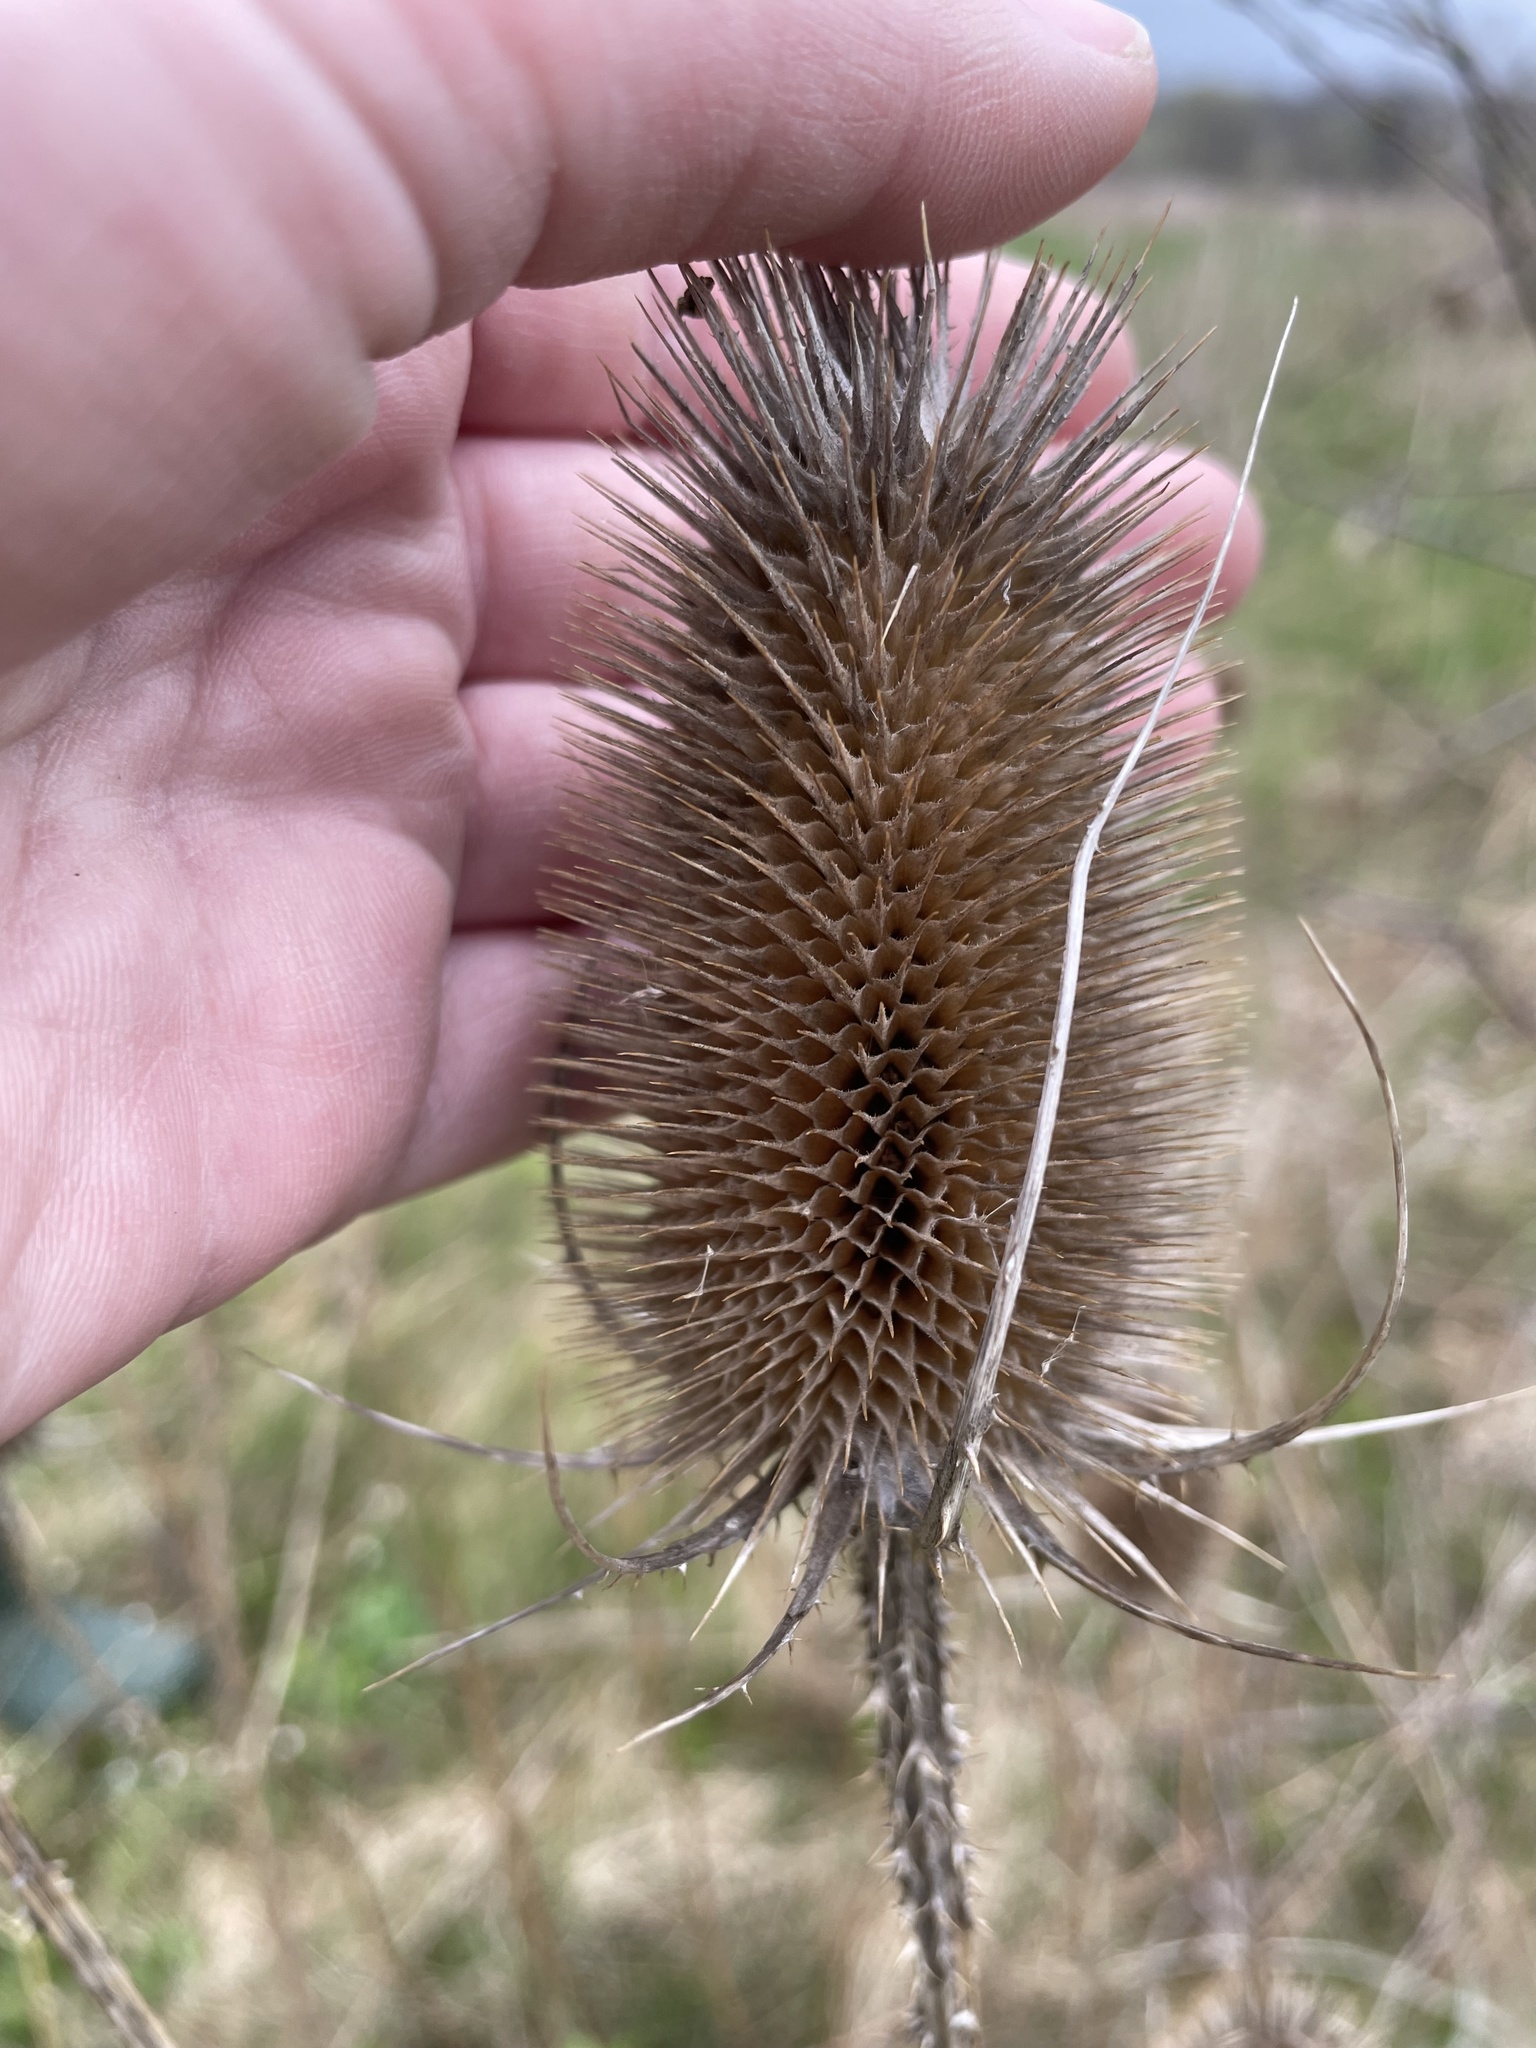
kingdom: Plantae
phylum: Tracheophyta
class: Magnoliopsida
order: Dipsacales
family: Caprifoliaceae
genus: Dipsacus
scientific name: Dipsacus fullonum
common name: Teasel
